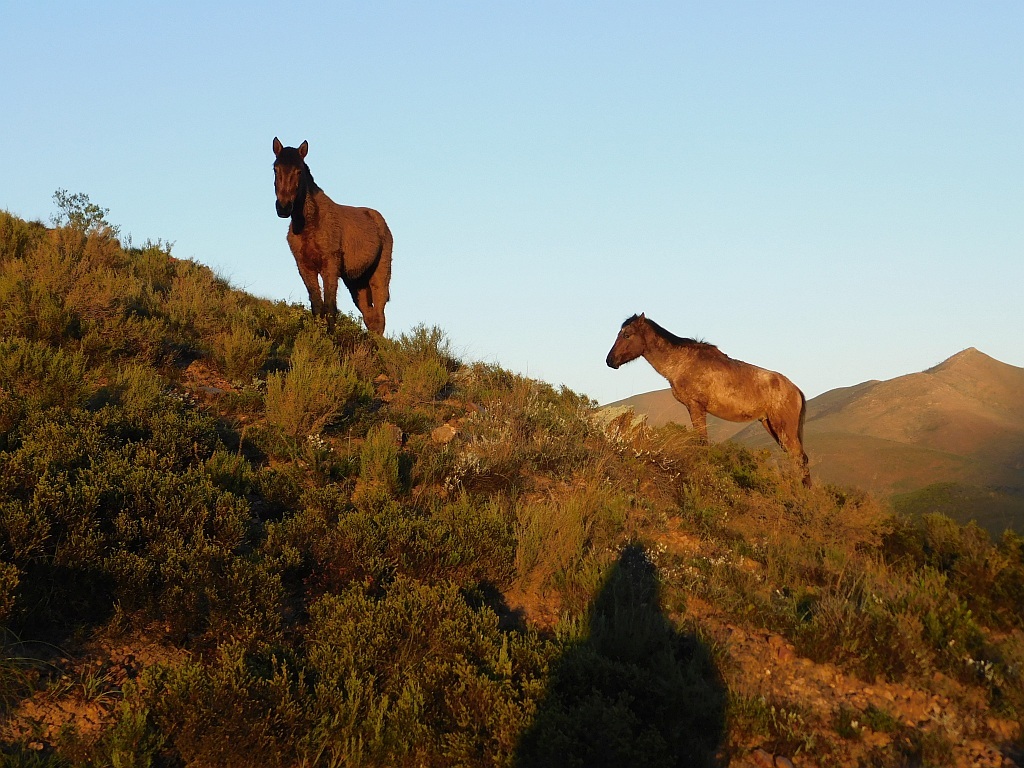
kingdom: Animalia
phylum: Chordata
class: Mammalia
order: Perissodactyla
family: Equidae
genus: Equus
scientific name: Equus caballus
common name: Horse
